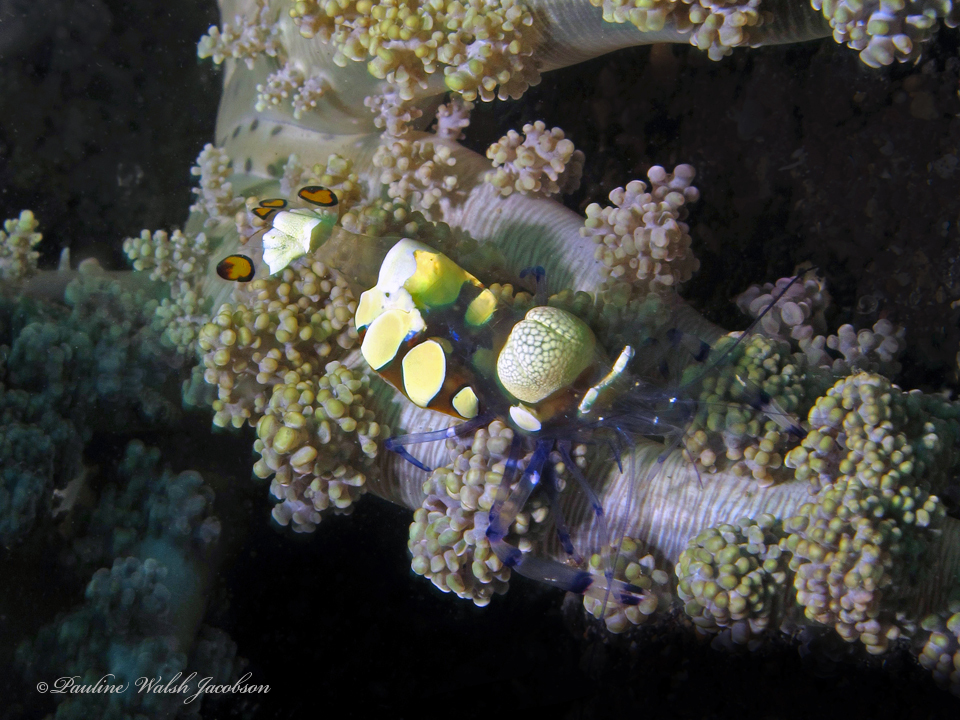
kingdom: Animalia
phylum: Arthropoda
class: Malacostraca
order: Decapoda
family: Palaemonidae
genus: Ancylocaris
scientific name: Ancylocaris brevicarpalis
